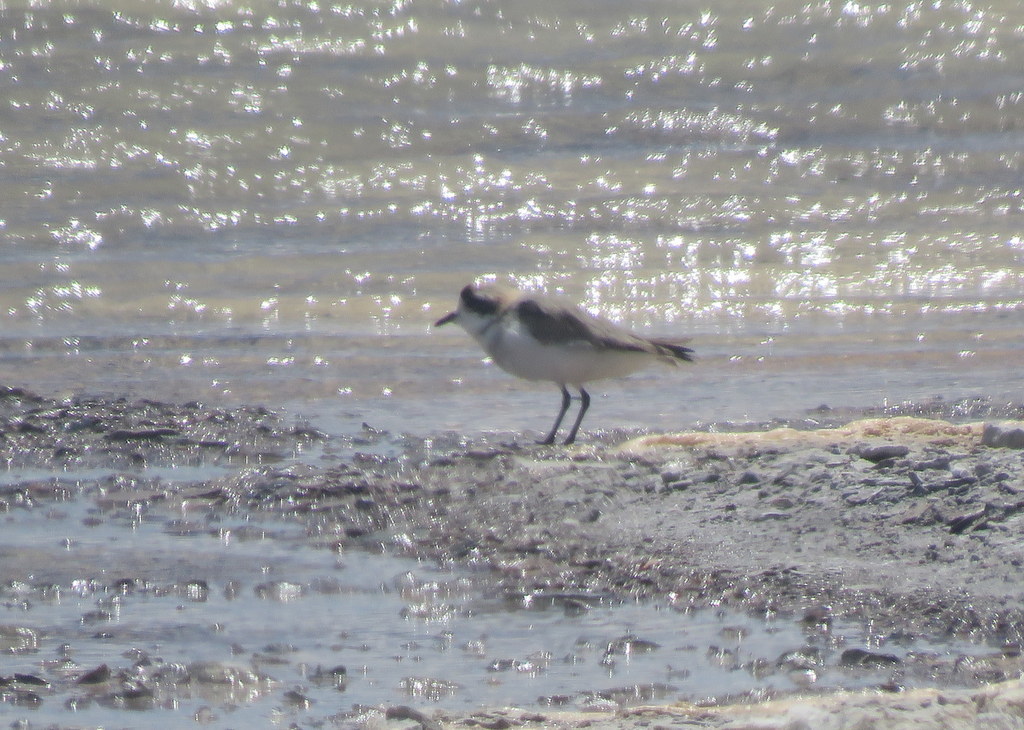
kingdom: Animalia
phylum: Chordata
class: Aves
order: Charadriiformes
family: Charadriidae
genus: Anarhynchus
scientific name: Anarhynchus
